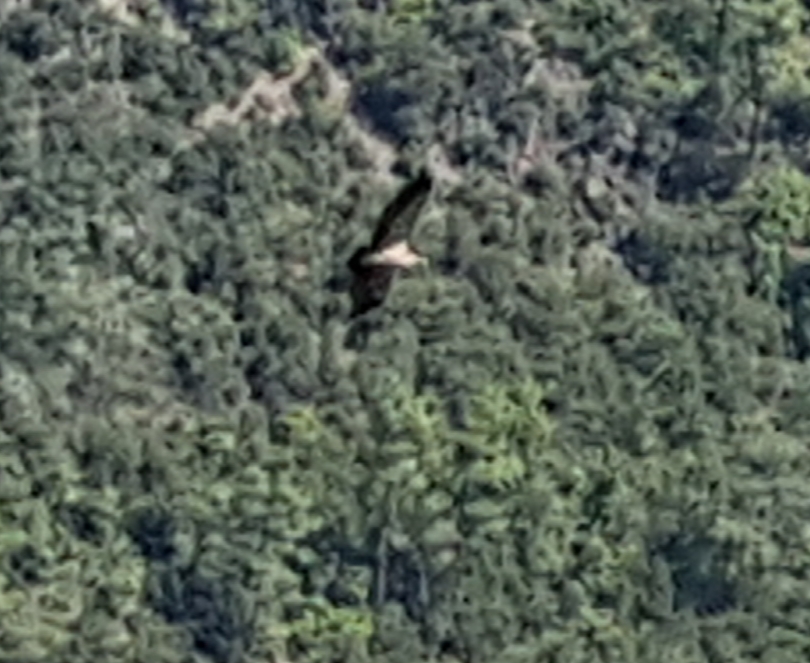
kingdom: Animalia
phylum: Chordata
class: Aves
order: Accipitriformes
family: Accipitridae
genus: Gyps
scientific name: Gyps fulvus
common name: Griffon vulture
